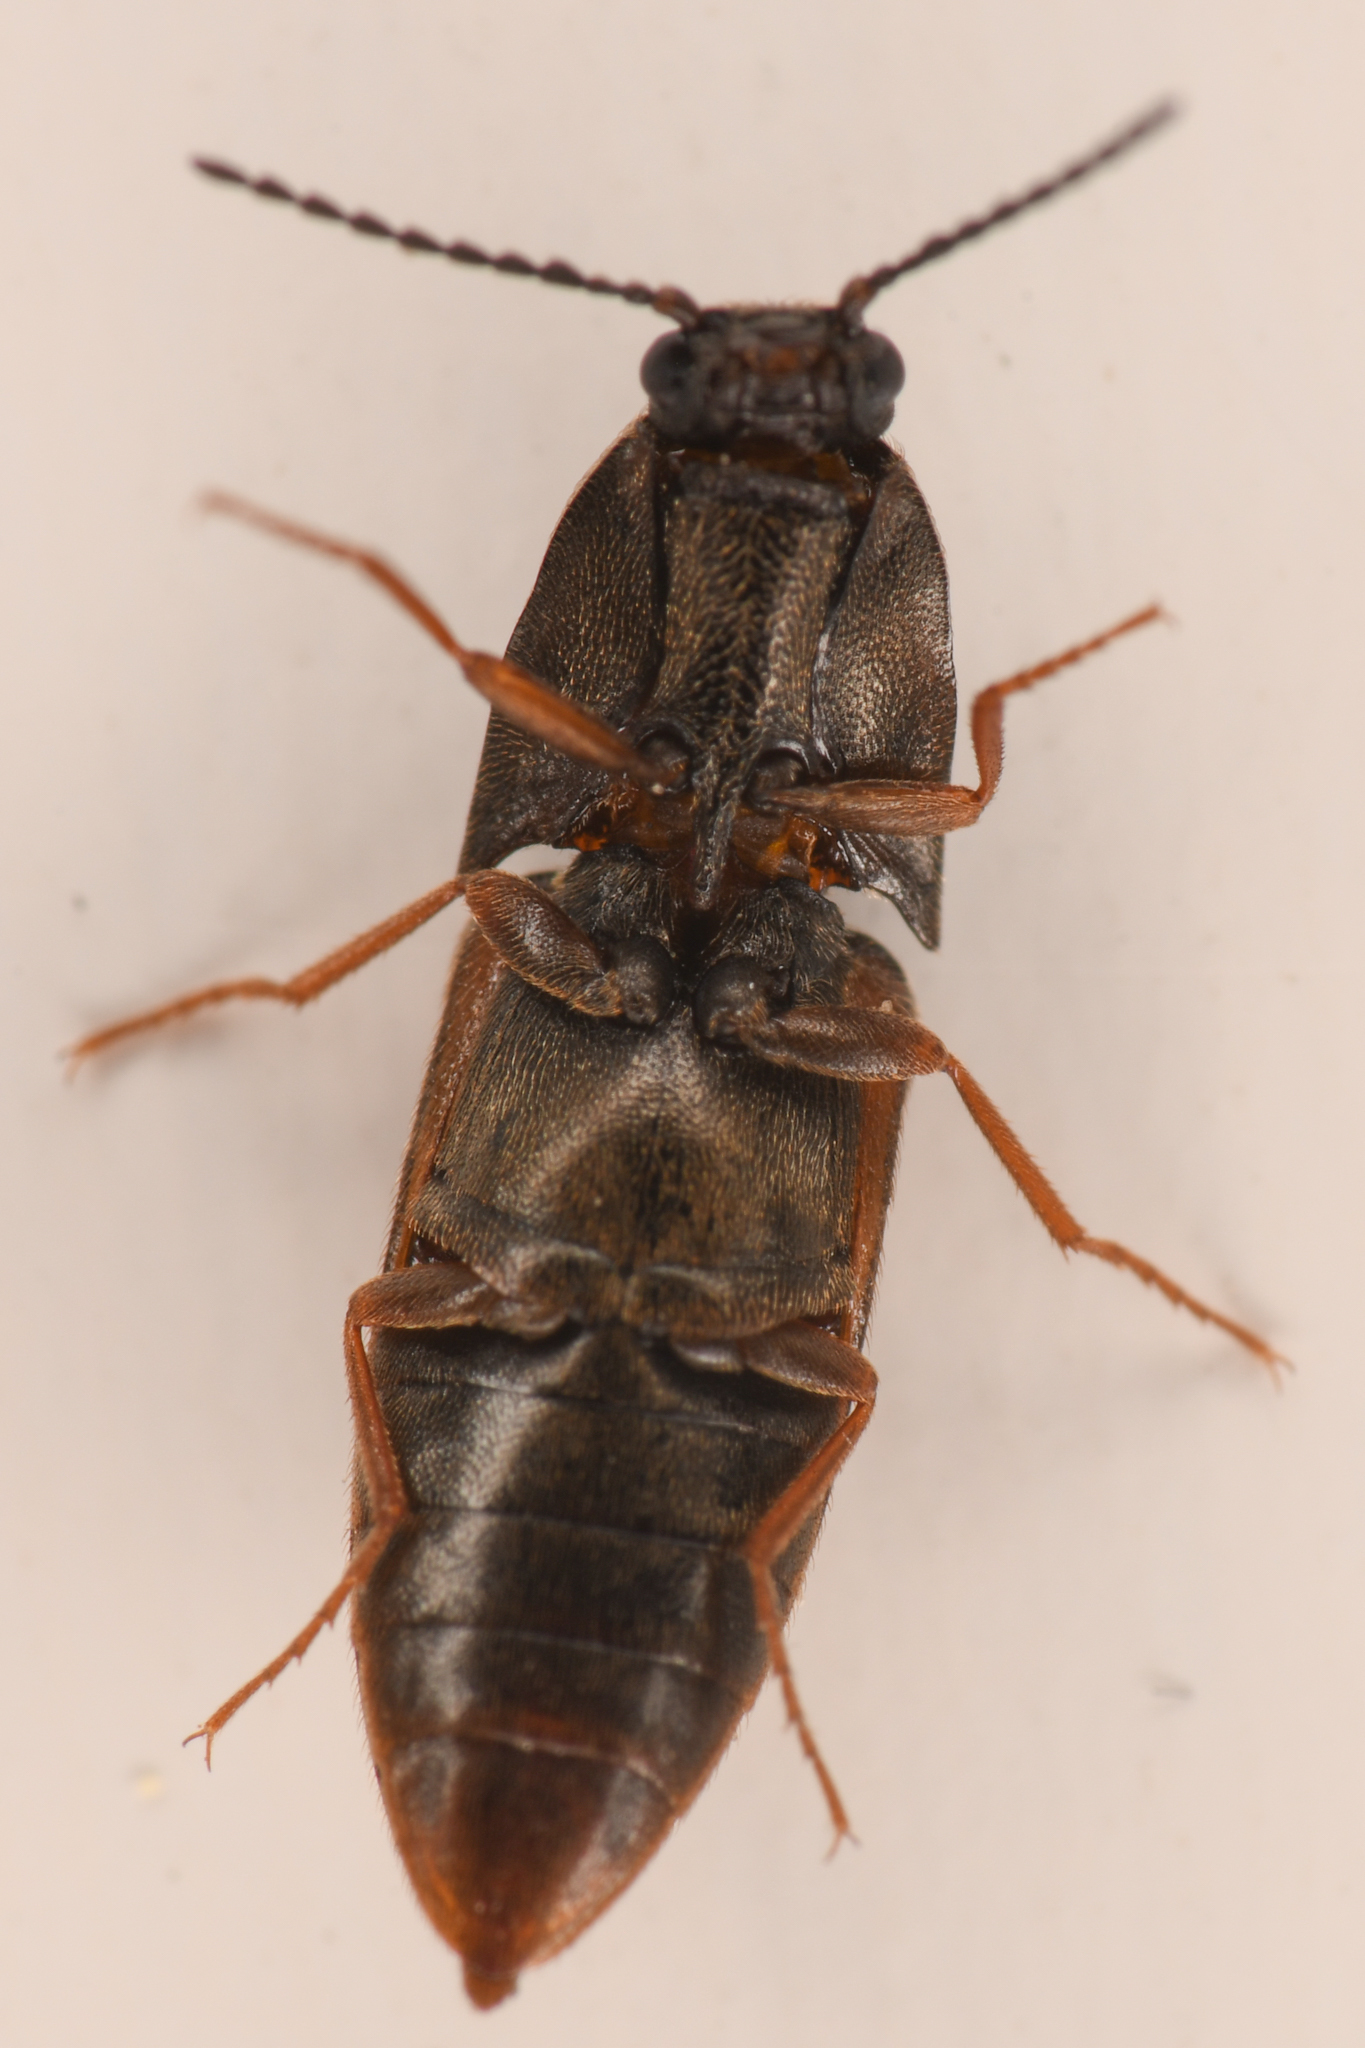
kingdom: Animalia
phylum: Arthropoda
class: Insecta
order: Coleoptera
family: Elateridae
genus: Sericus
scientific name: Sericus incongruus
